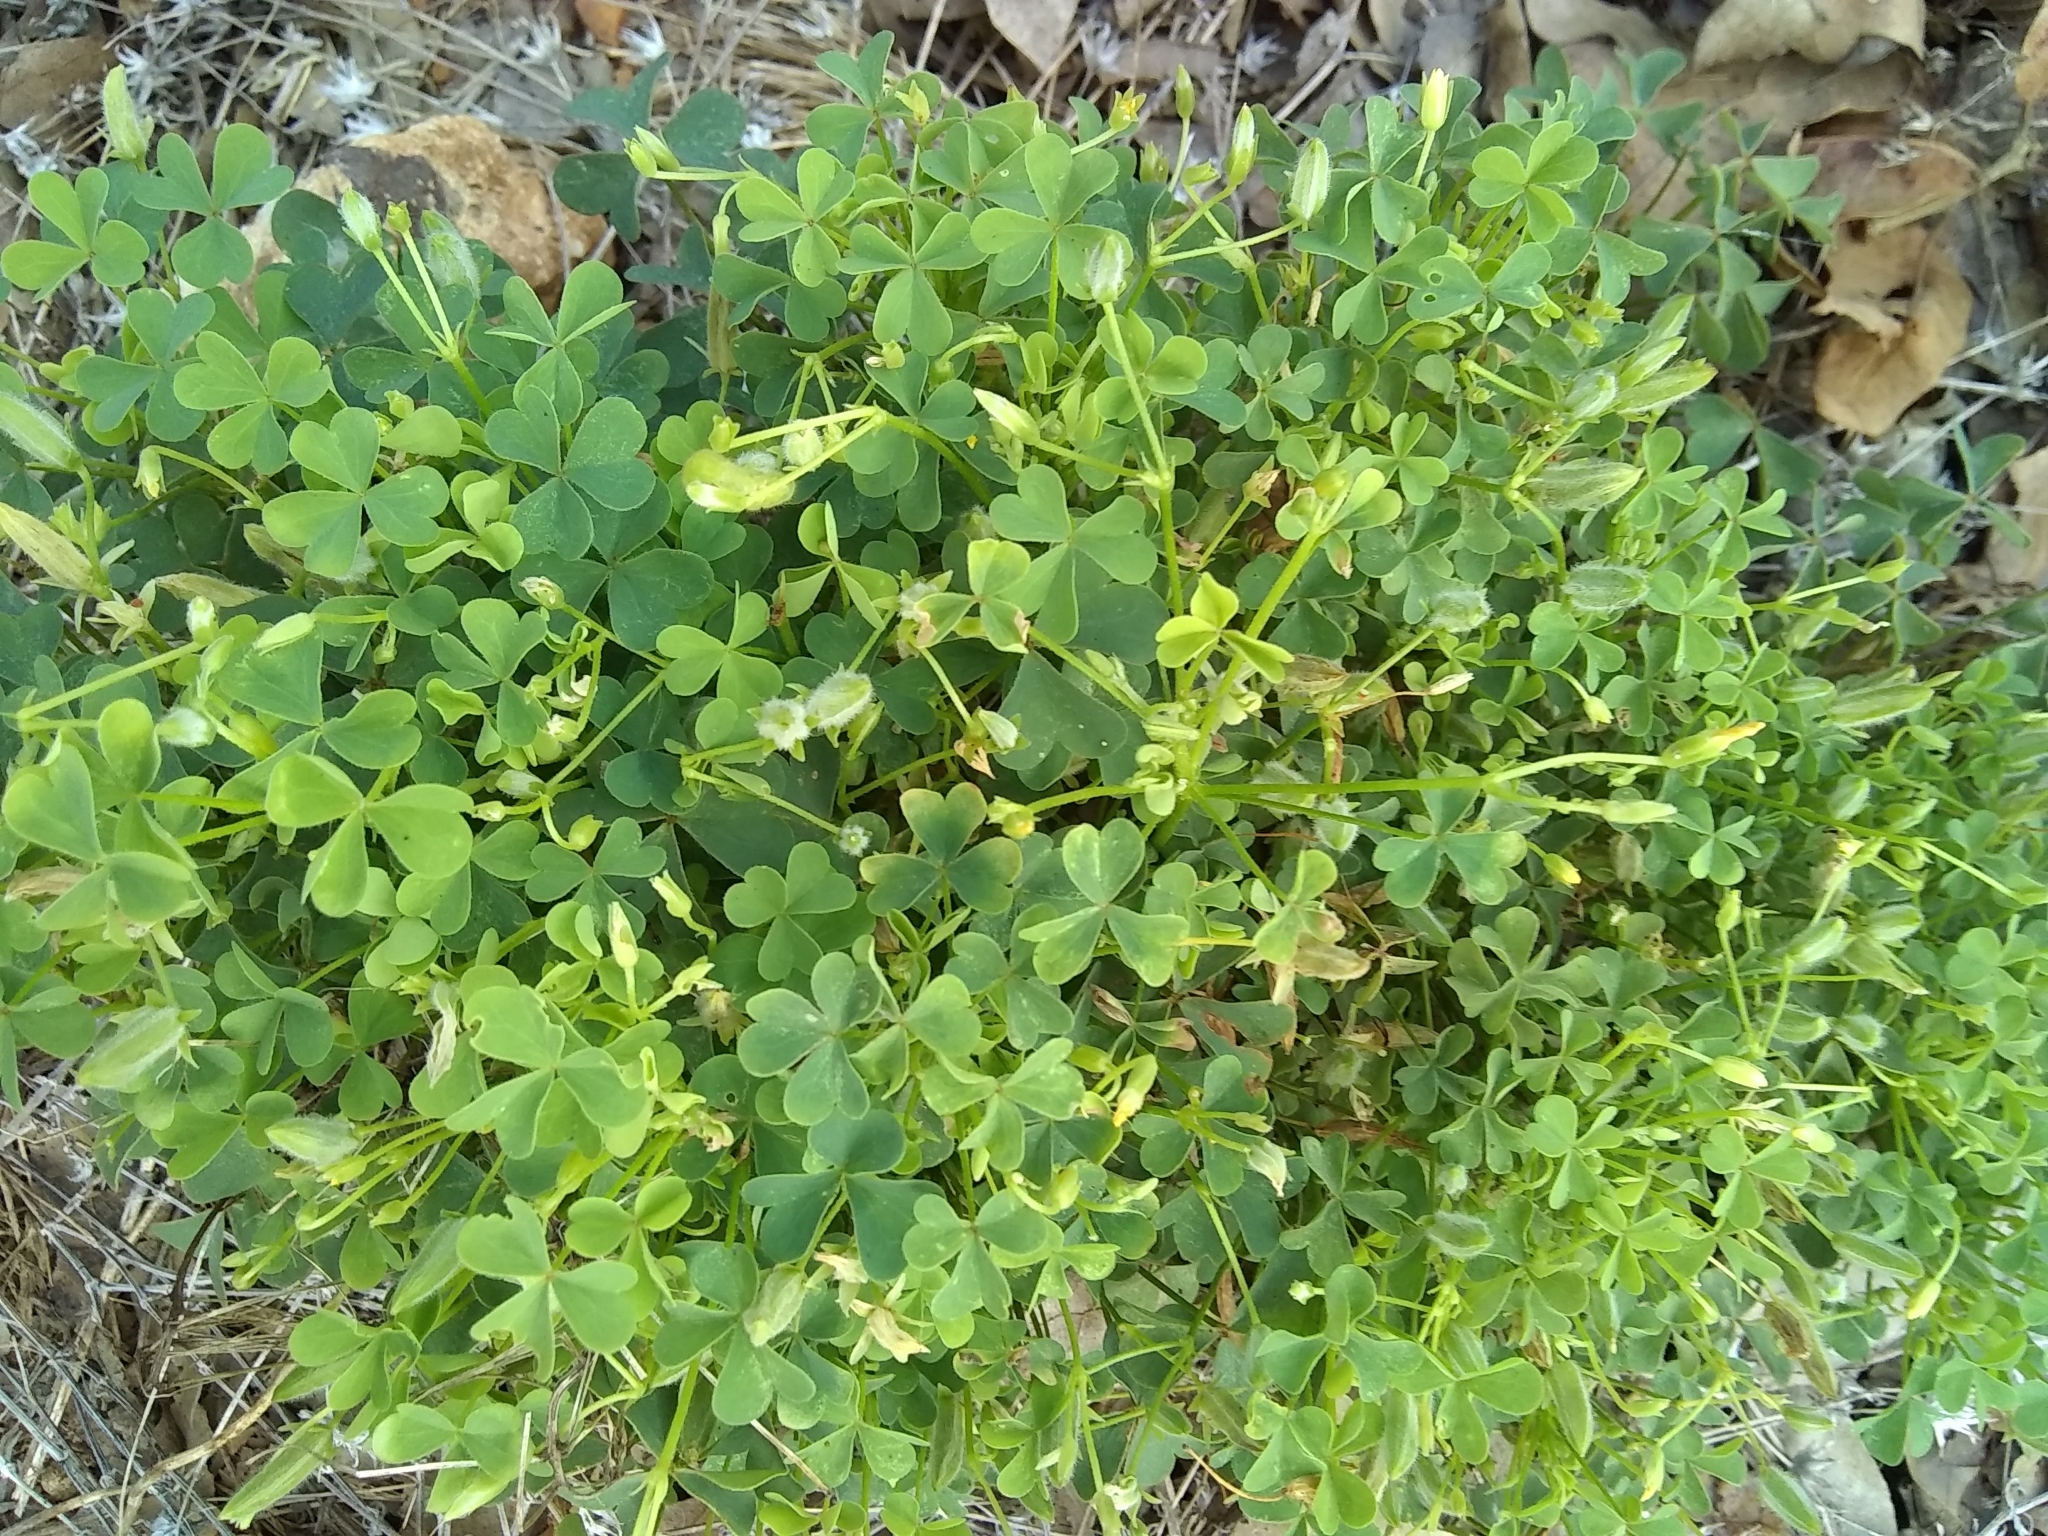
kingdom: Plantae
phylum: Tracheophyta
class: Magnoliopsida
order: Oxalidales
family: Oxalidaceae
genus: Oxalis
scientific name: Oxalis
